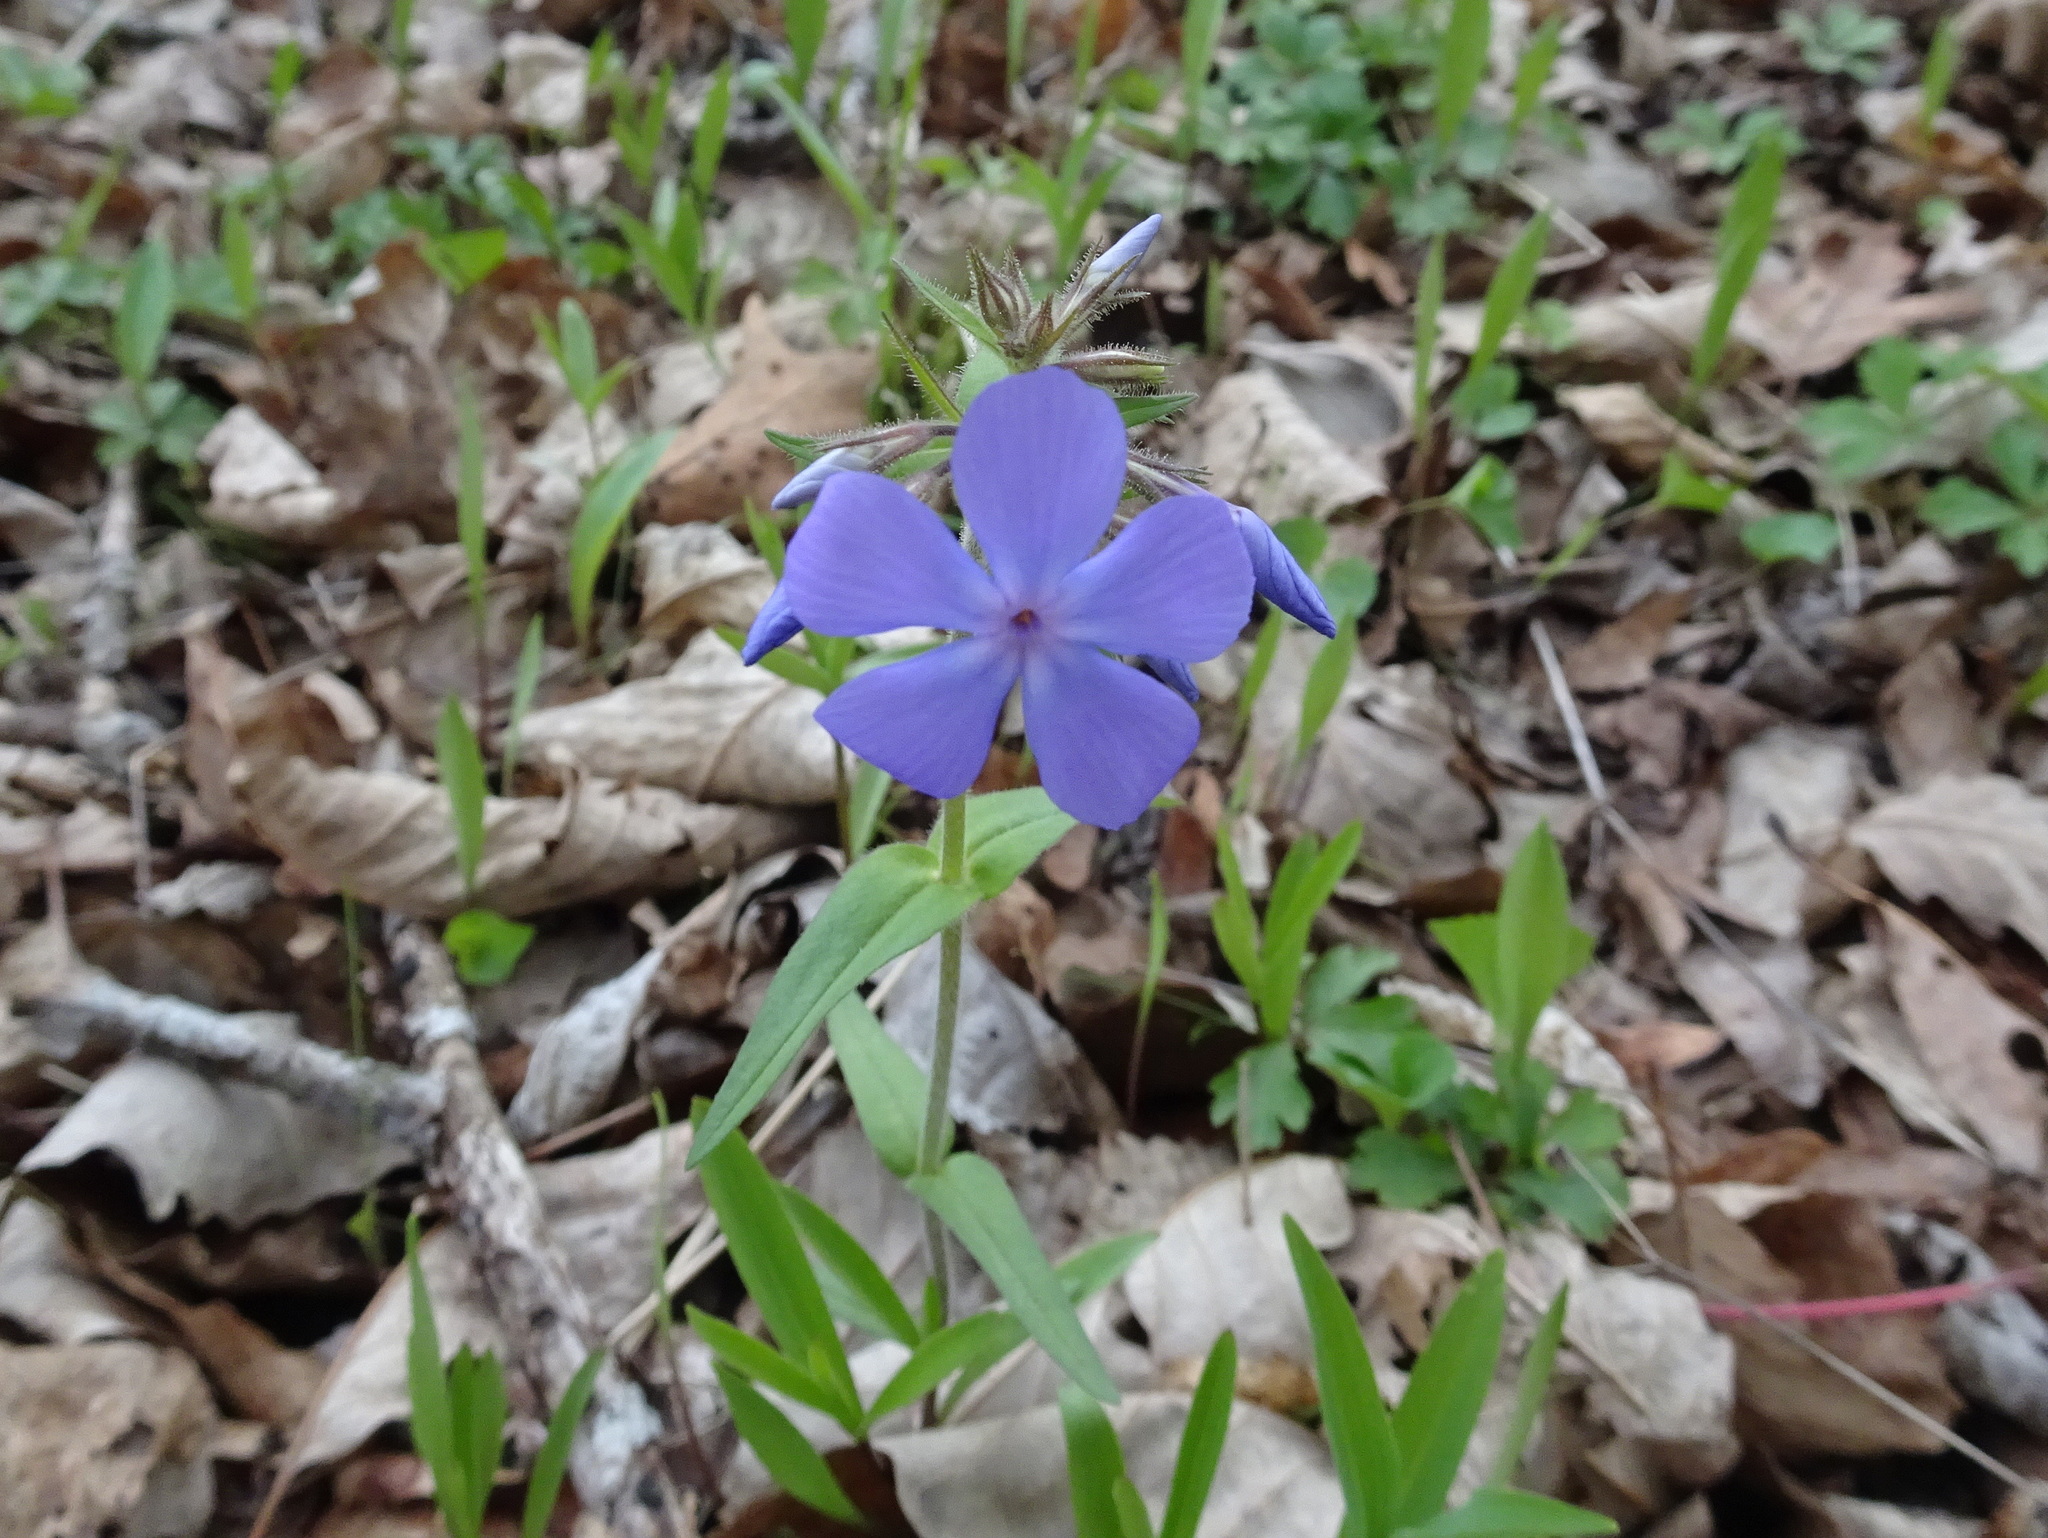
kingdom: Plantae
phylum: Tracheophyta
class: Magnoliopsida
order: Ericales
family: Polemoniaceae
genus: Phlox
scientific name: Phlox divaricata
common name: Blue phlox
